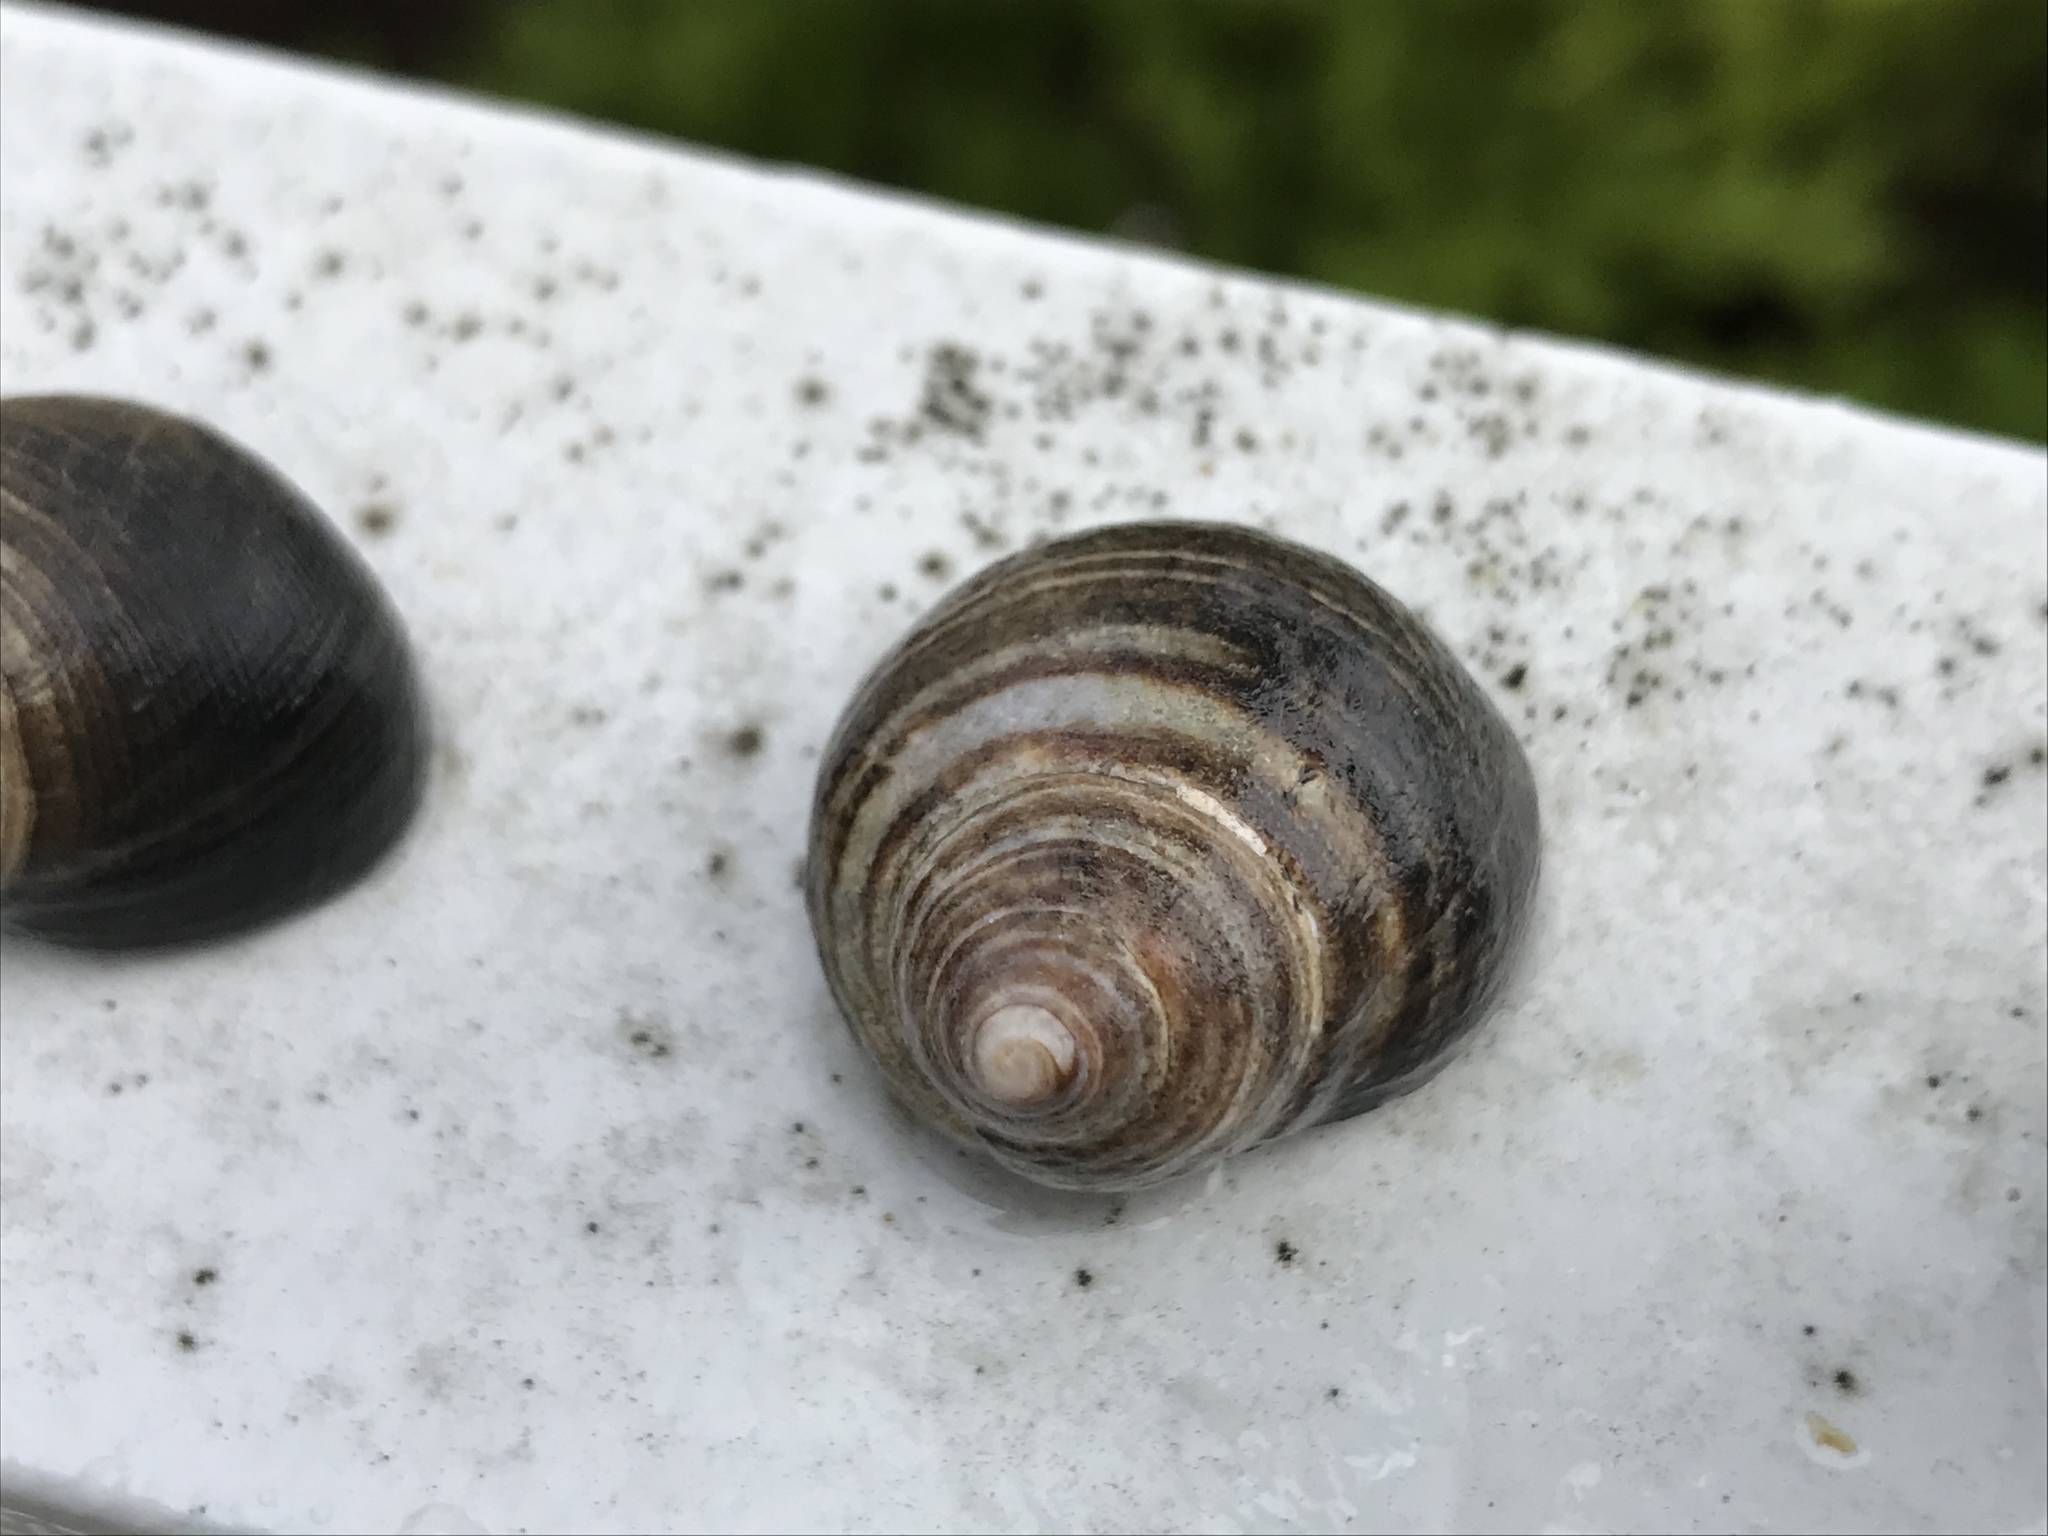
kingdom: Animalia
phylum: Mollusca
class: Gastropoda
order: Littorinimorpha
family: Littorinidae
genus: Littorina
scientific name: Littorina littorea
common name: Common periwinkle
